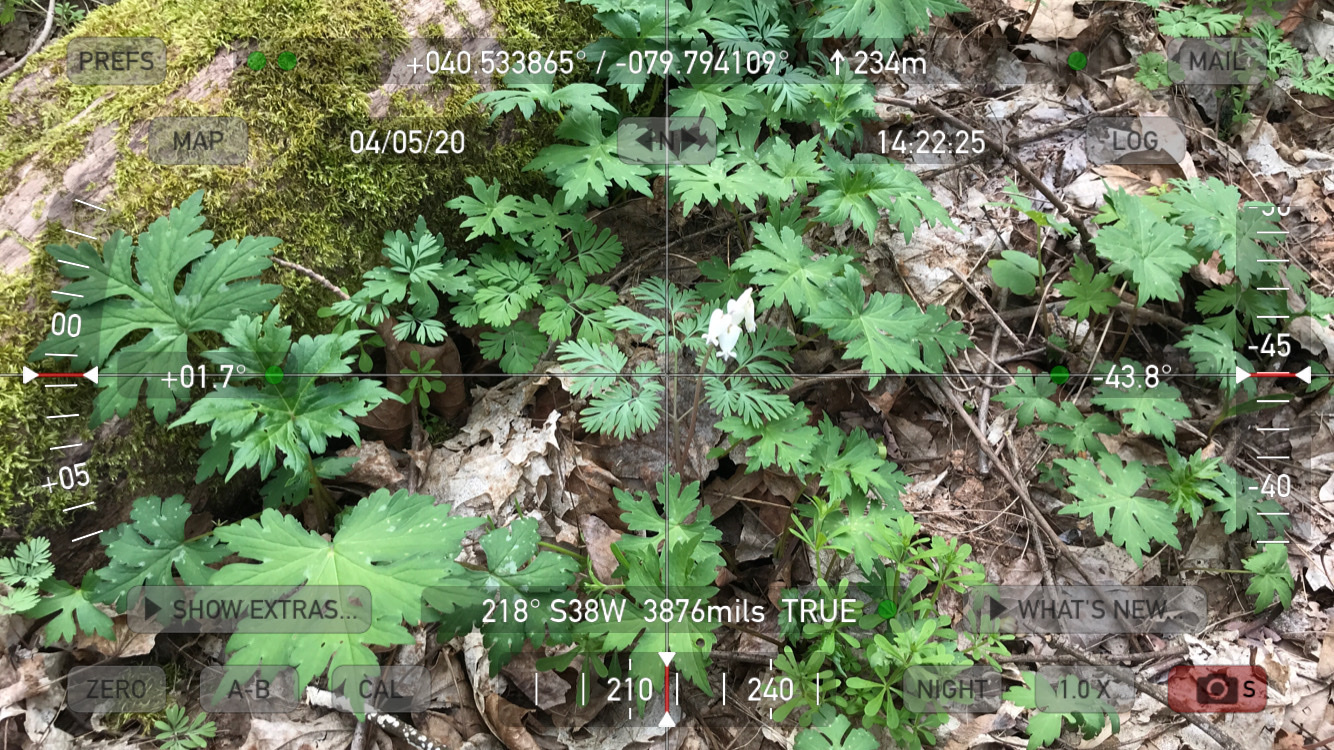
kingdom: Plantae
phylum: Tracheophyta
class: Magnoliopsida
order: Ranunculales
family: Papaveraceae
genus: Dicentra
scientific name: Dicentra canadensis
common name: Squirrel-corn
